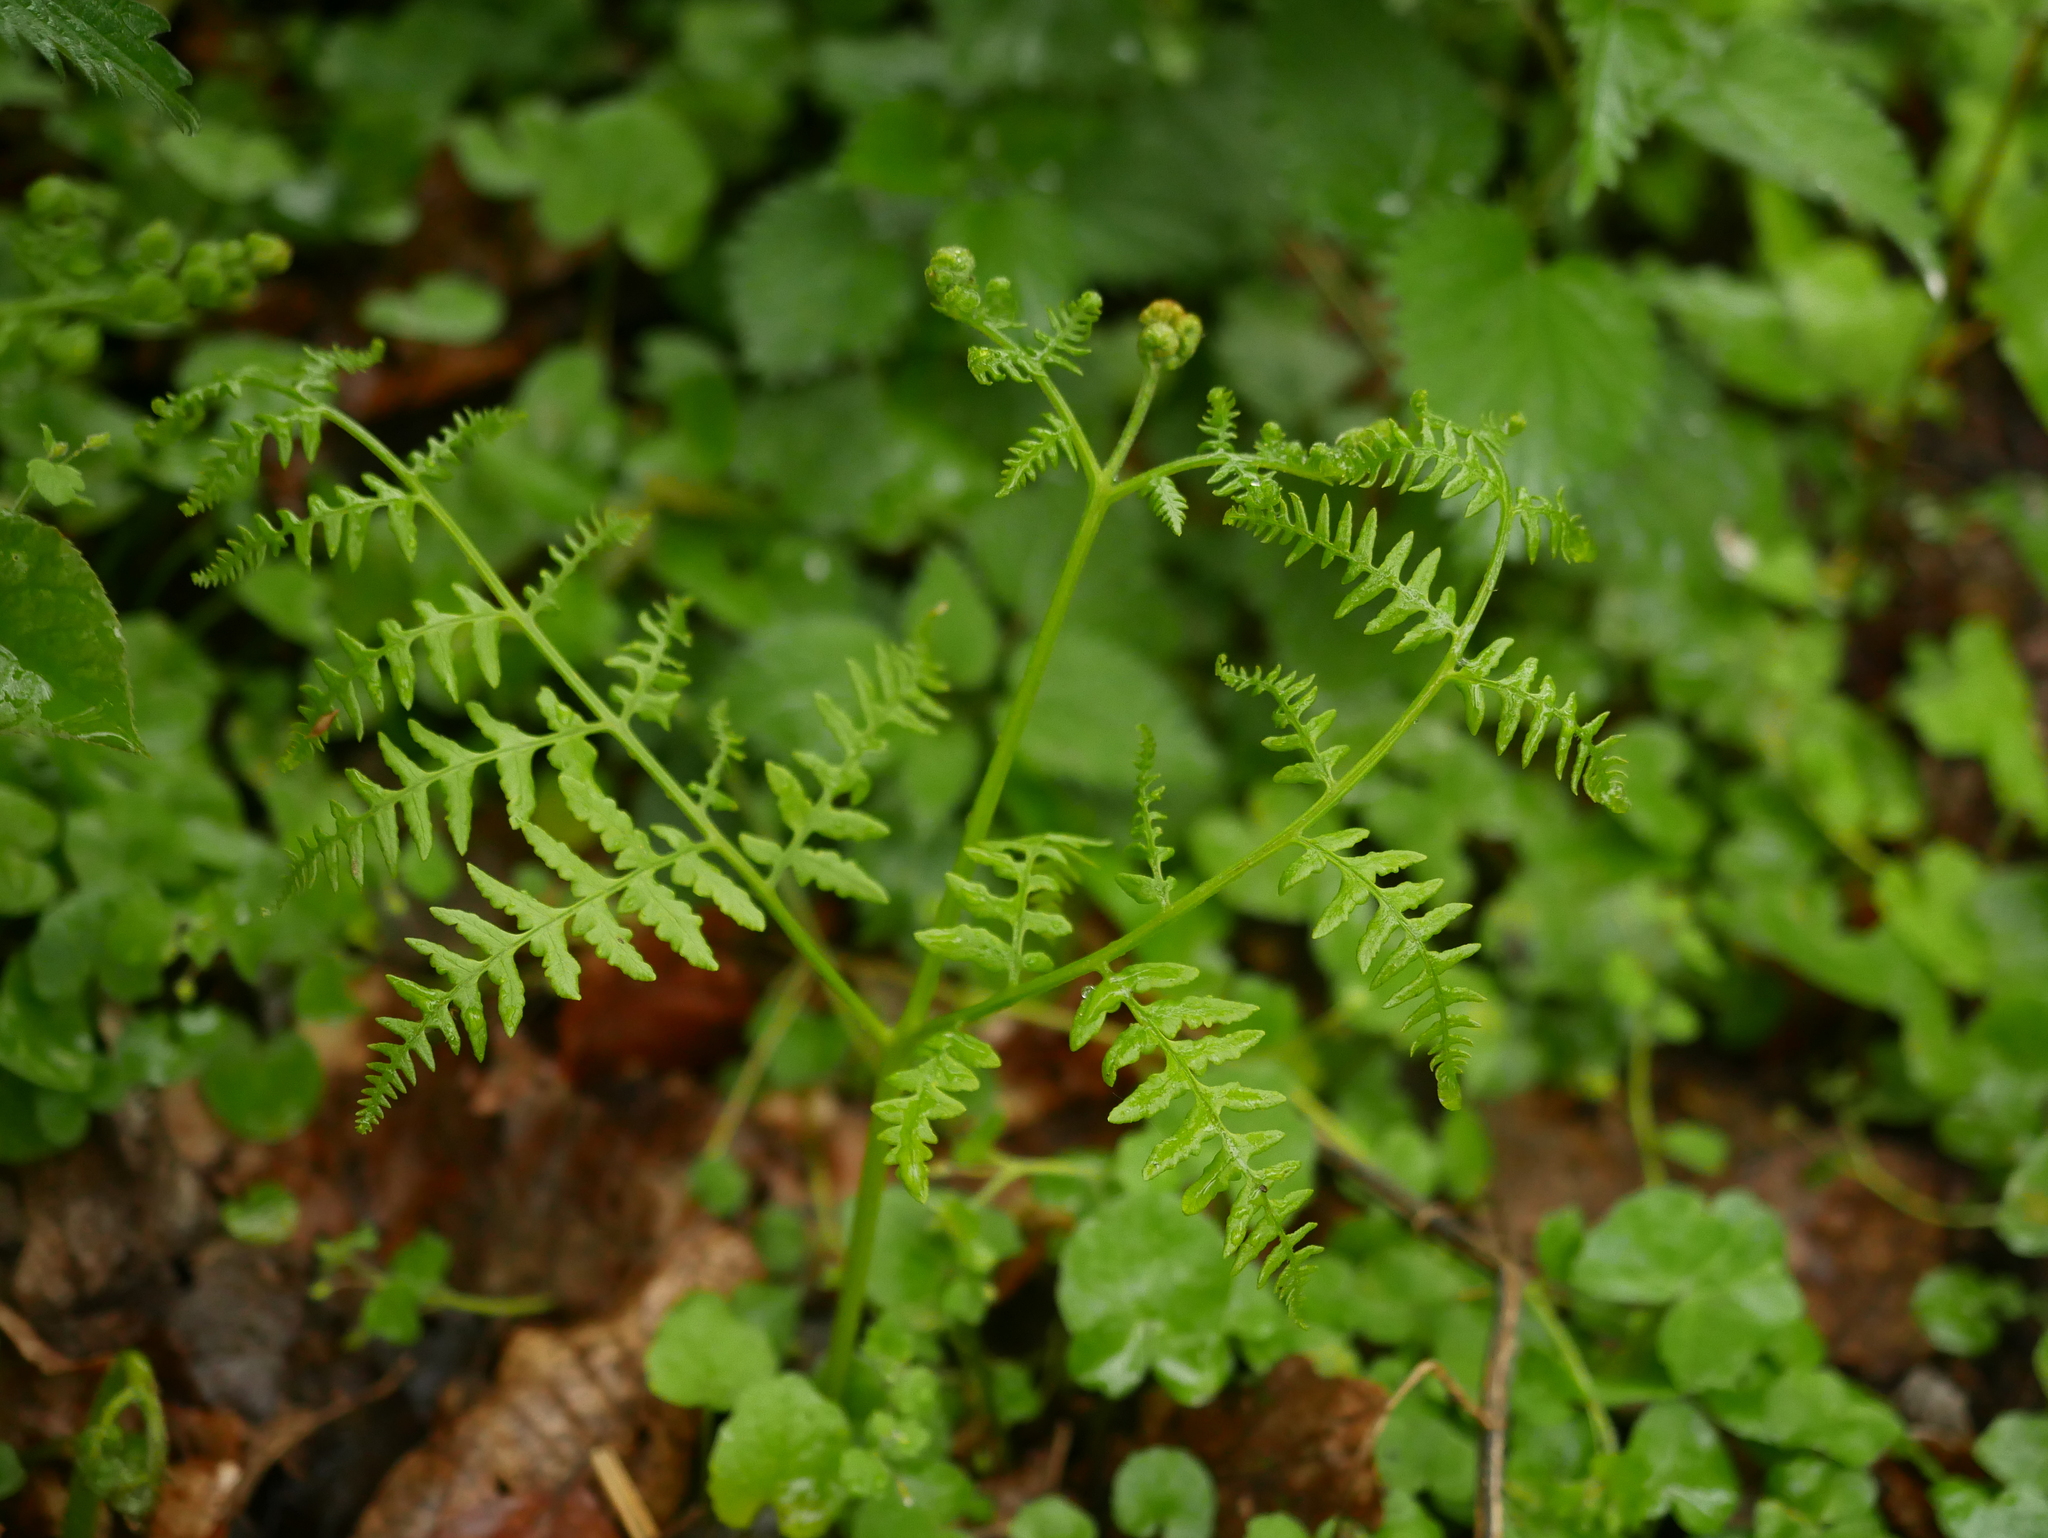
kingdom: Plantae
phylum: Tracheophyta
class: Polypodiopsida
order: Polypodiales
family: Dennstaedtiaceae
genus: Pteridium
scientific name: Pteridium aquilinum
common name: Bracken
